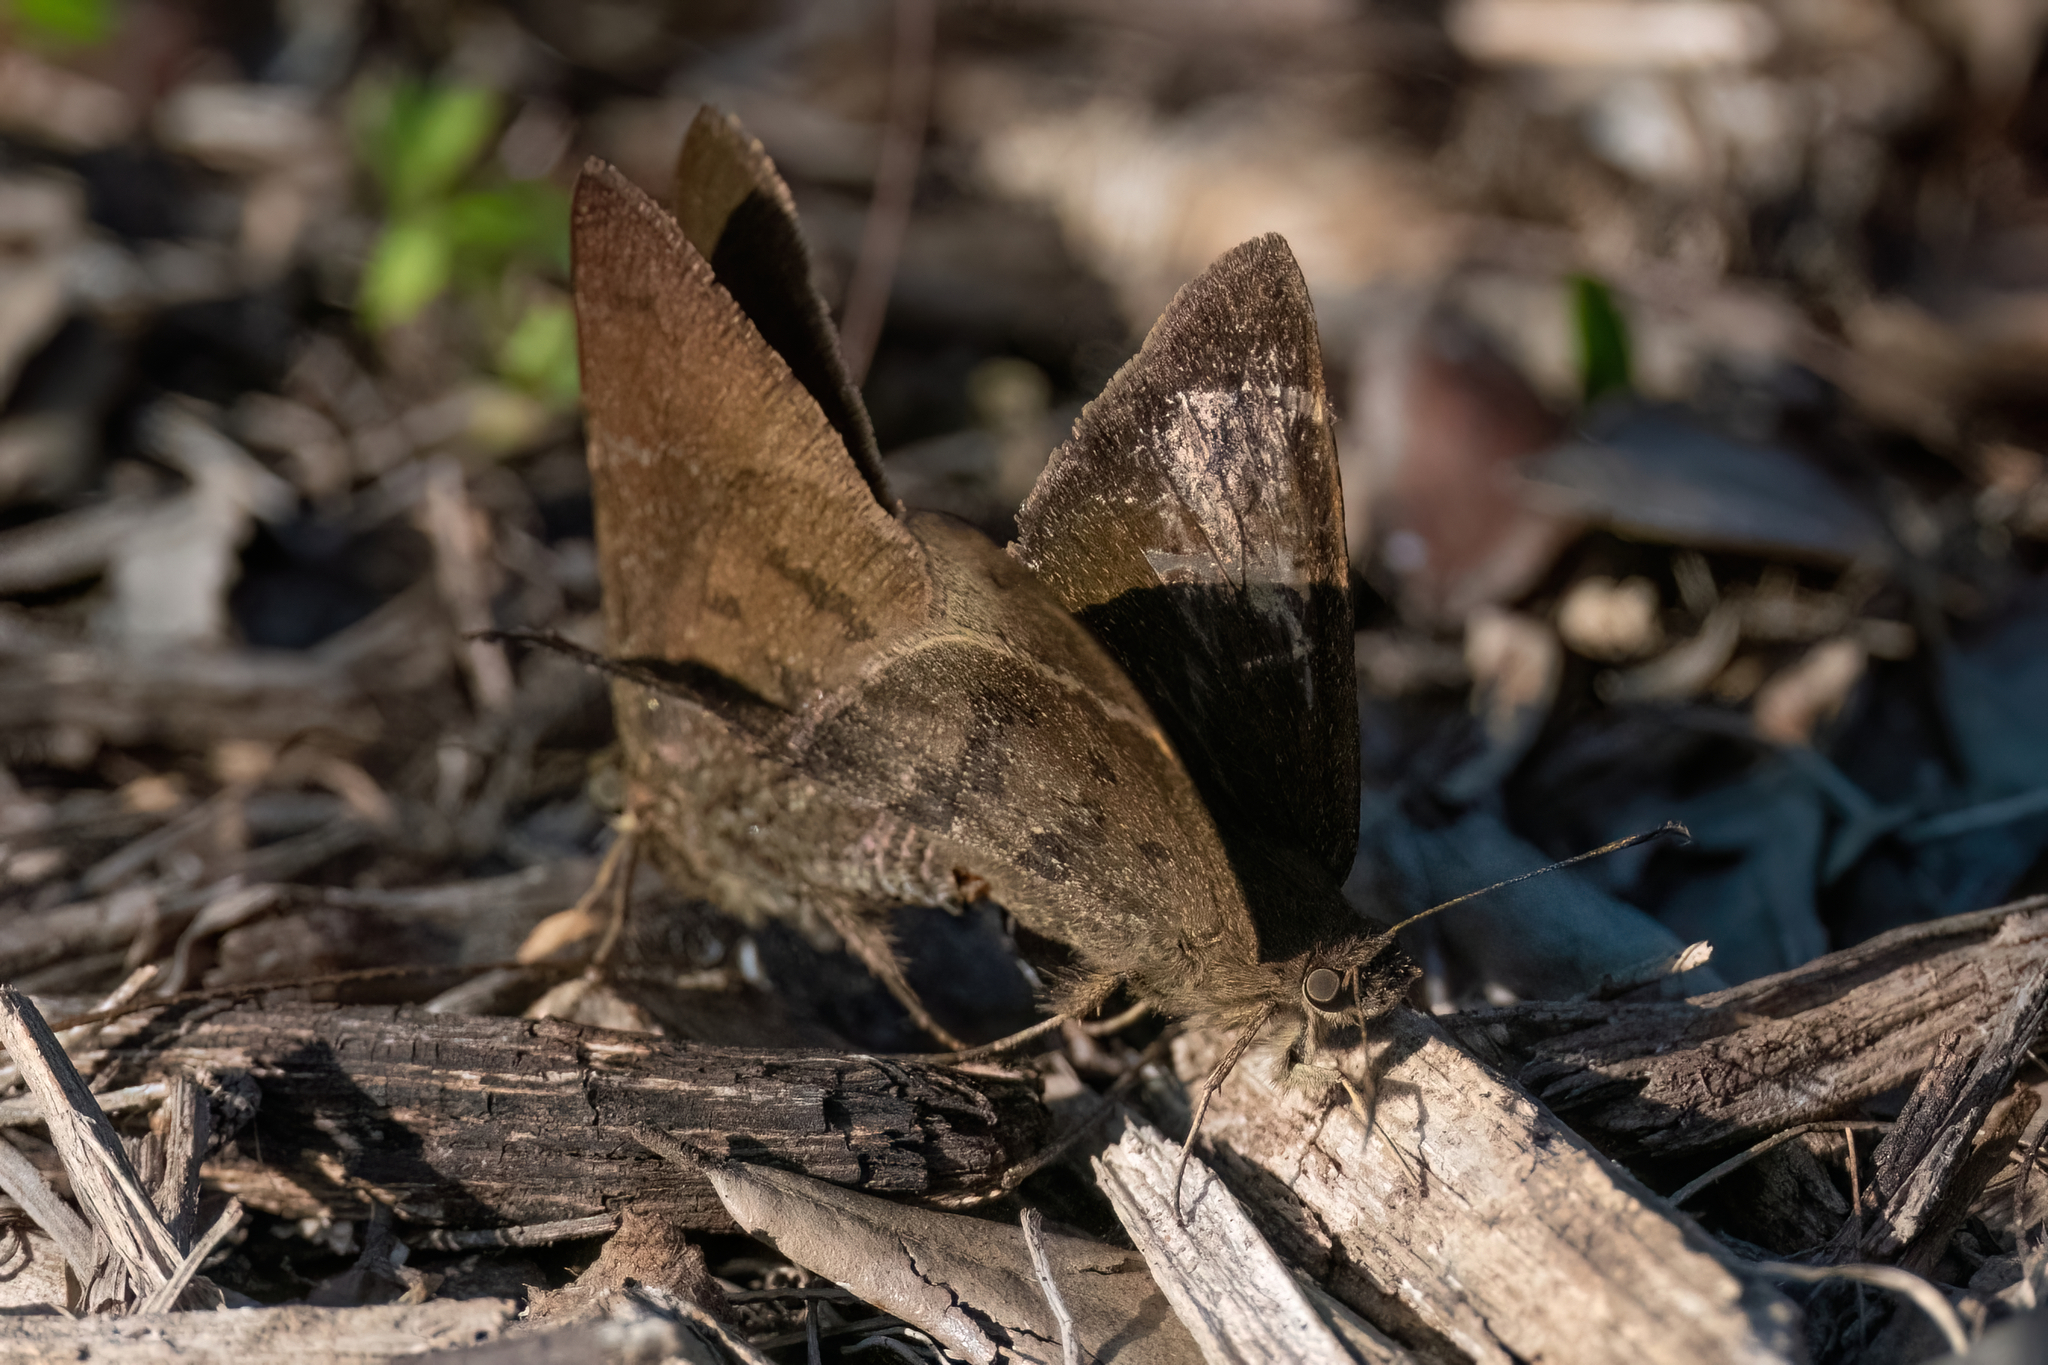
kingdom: Animalia
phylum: Arthropoda
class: Insecta
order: Lepidoptera
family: Hesperiidae
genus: Urbanus
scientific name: Urbanus procne
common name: Brown longtail
